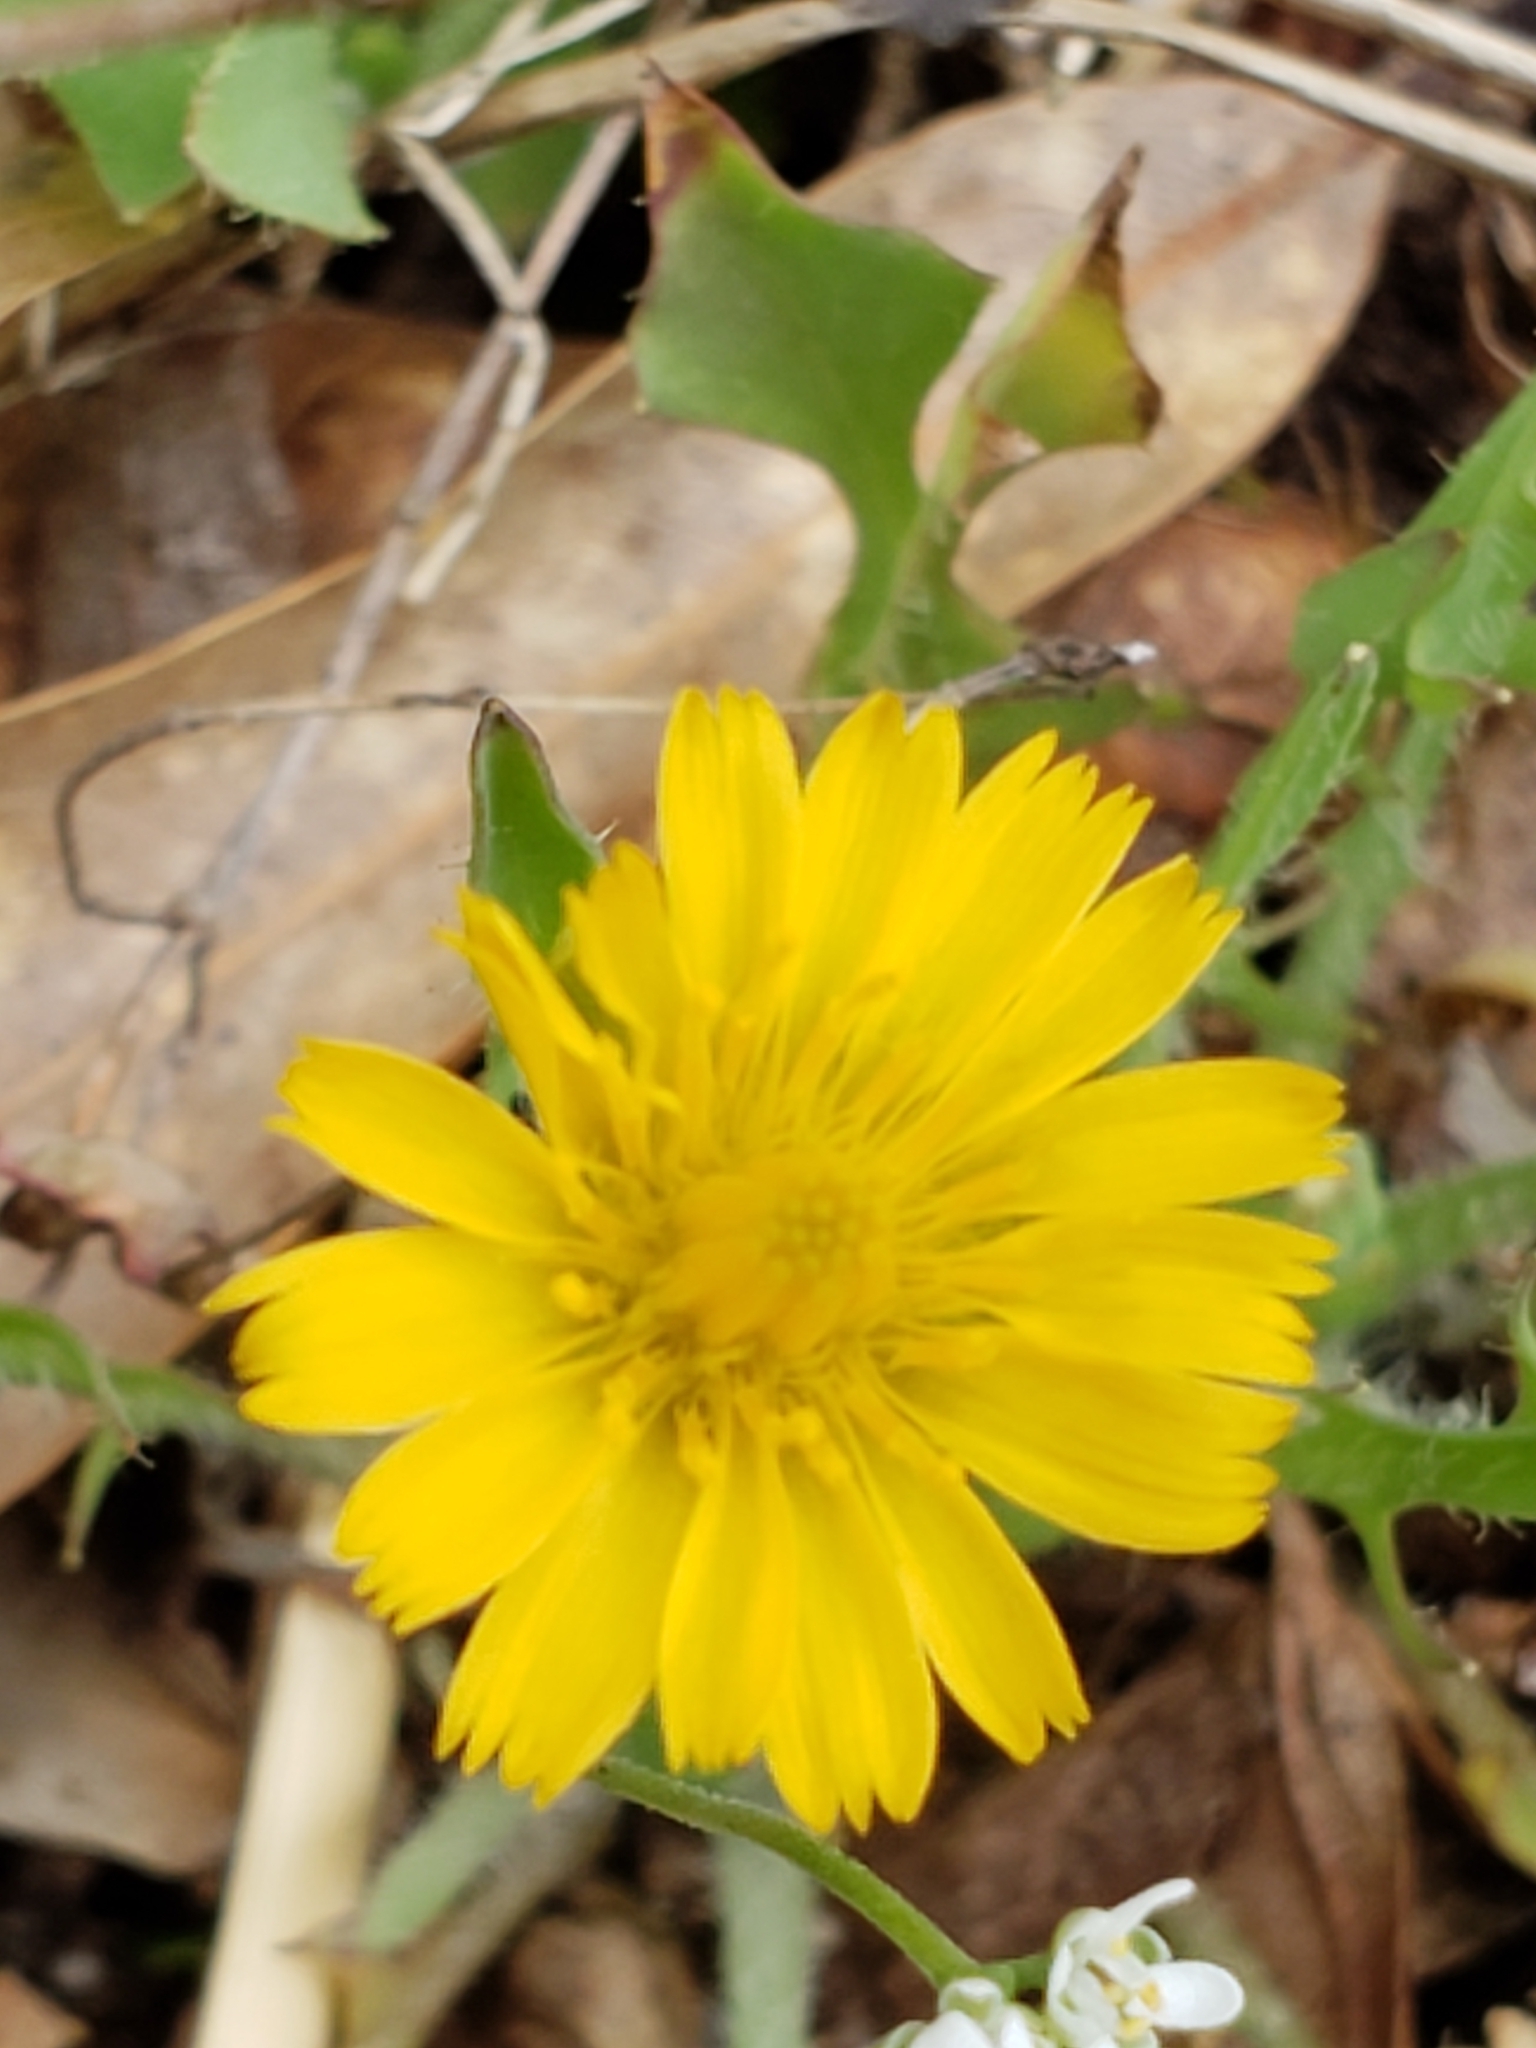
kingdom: Plantae
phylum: Tracheophyta
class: Magnoliopsida
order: Asterales
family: Asteraceae
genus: Krigia
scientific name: Krigia virginica
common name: Virginia dwarf-dandelion
